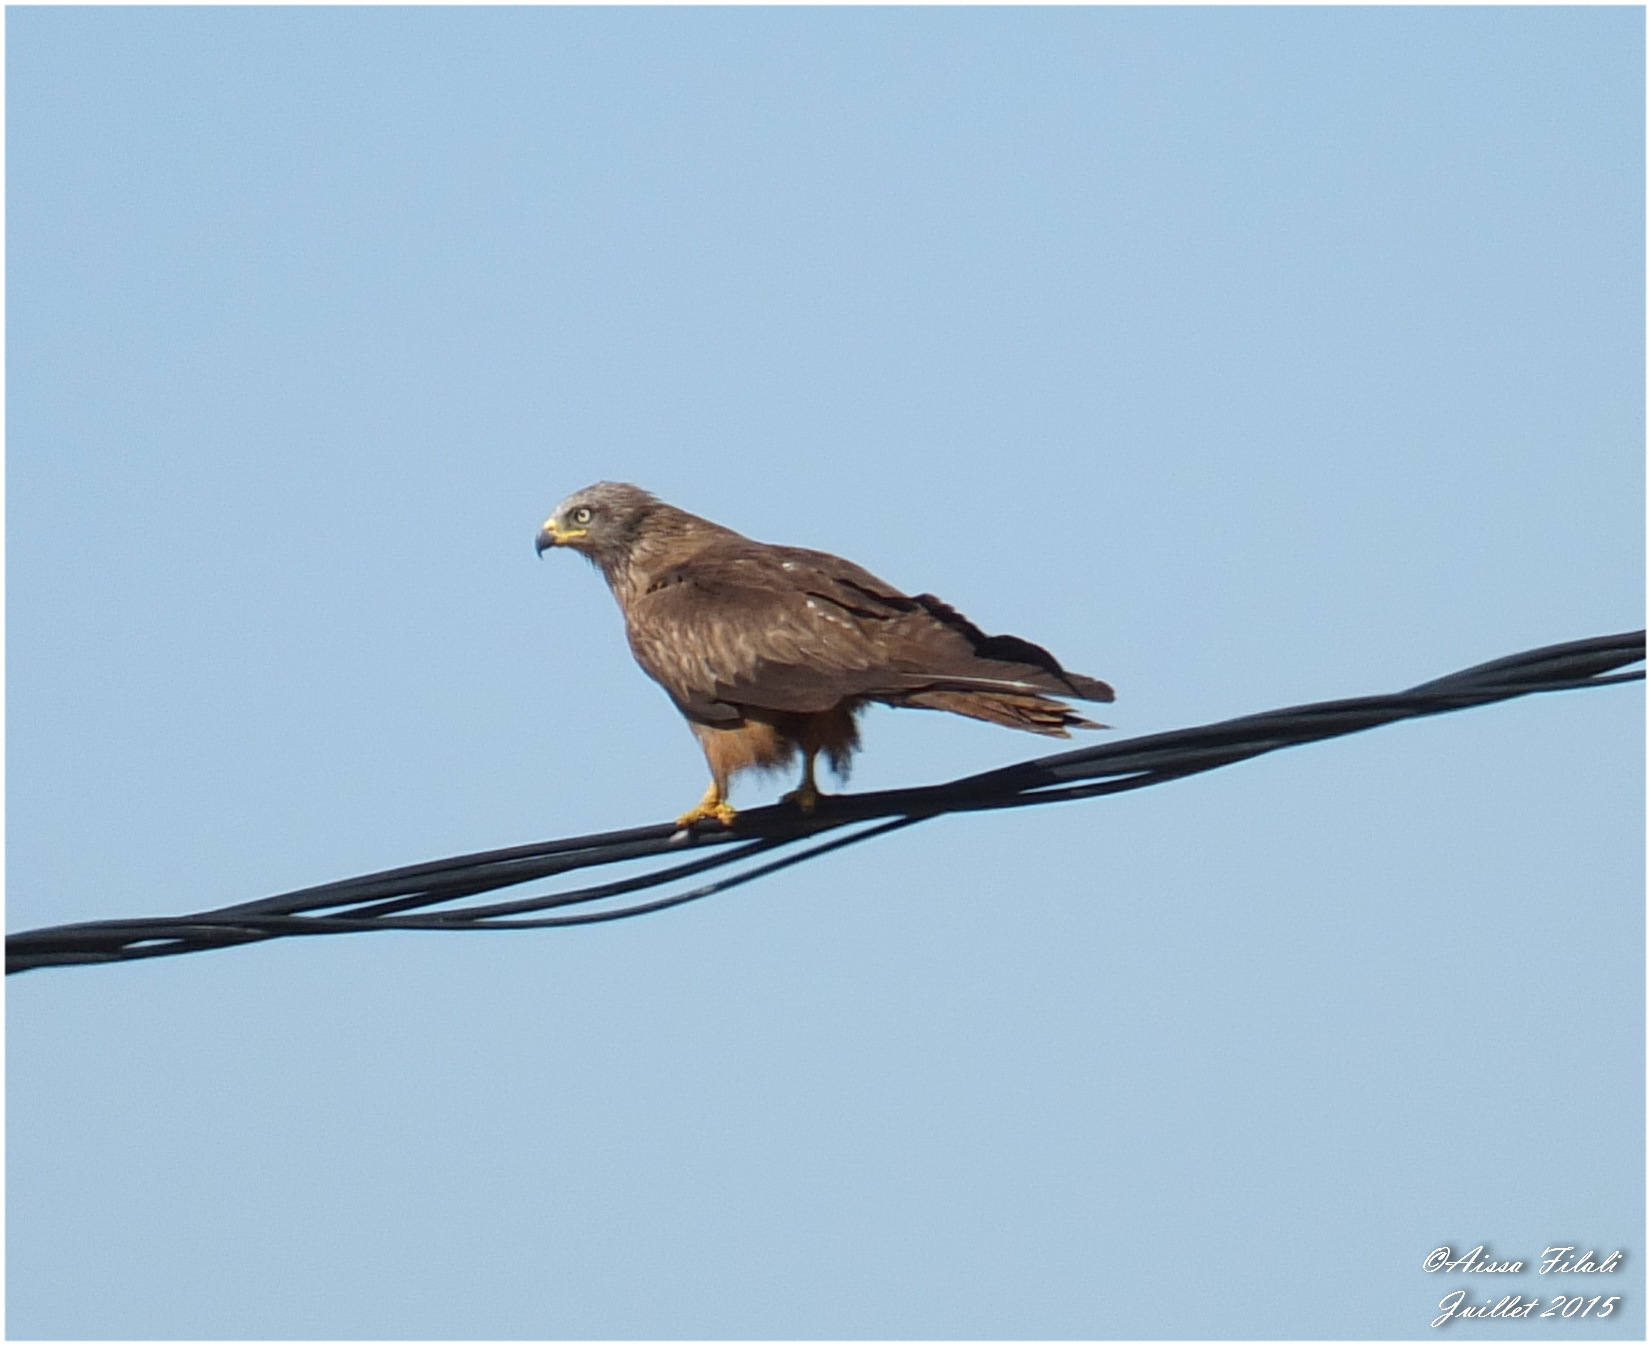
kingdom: Animalia
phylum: Chordata
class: Aves
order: Accipitriformes
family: Accipitridae
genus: Milvus
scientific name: Milvus migrans
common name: Black kite
